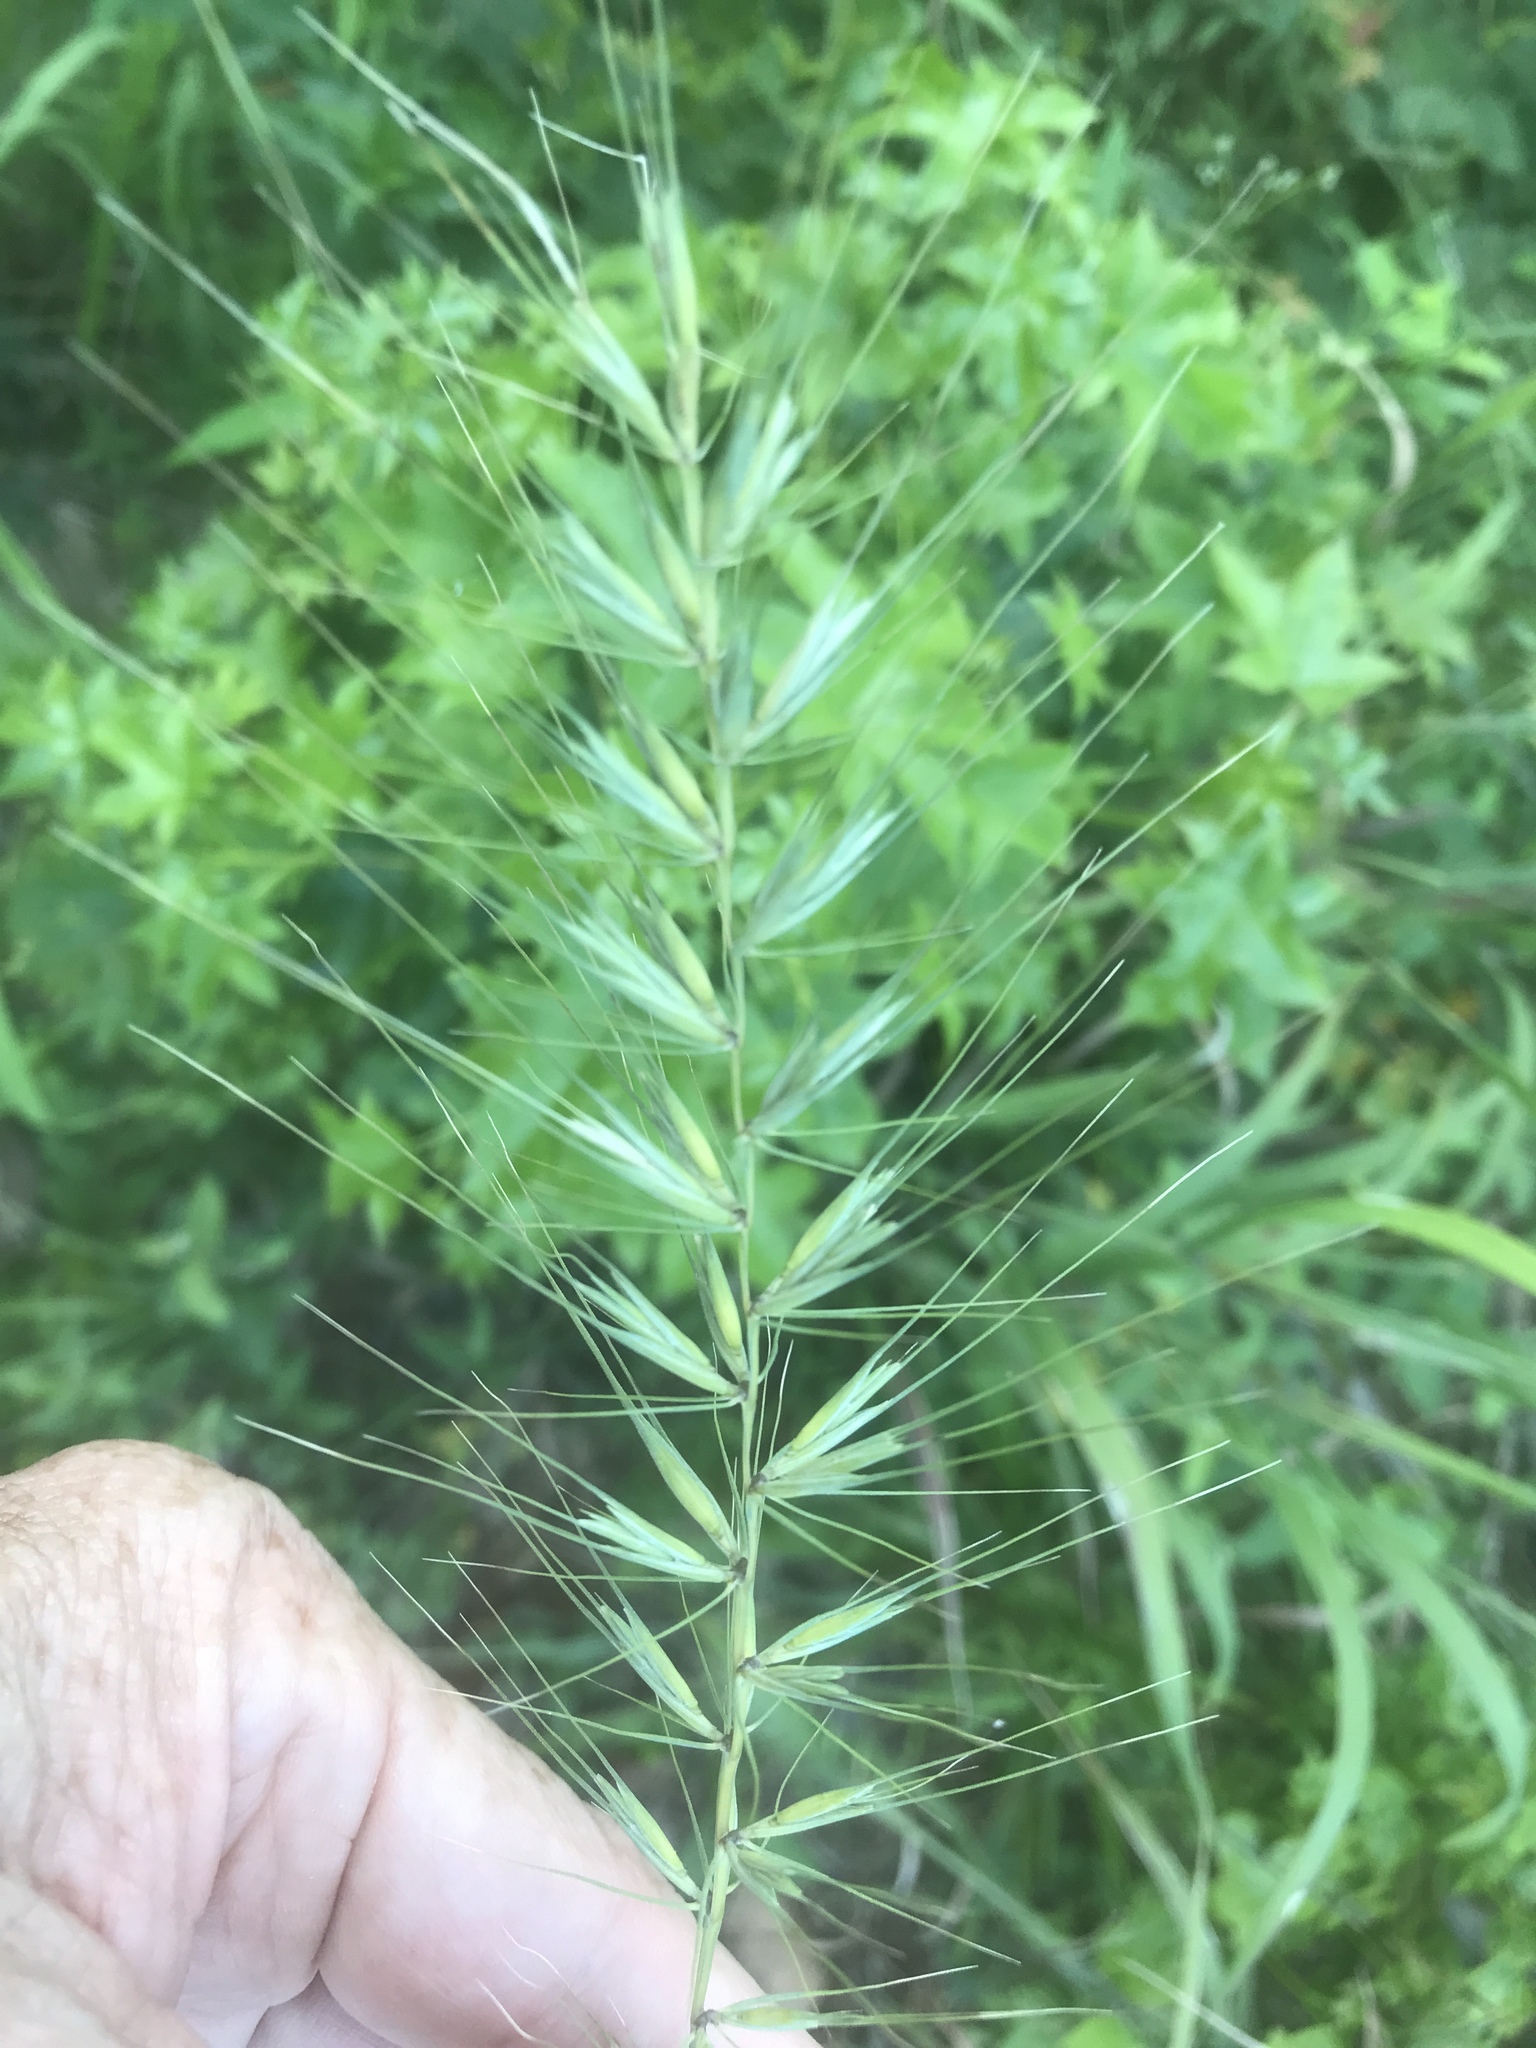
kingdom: Plantae
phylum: Tracheophyta
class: Liliopsida
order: Poales
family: Poaceae
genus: Elymus
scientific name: Elymus hystrix
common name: Bottlebrush grass
